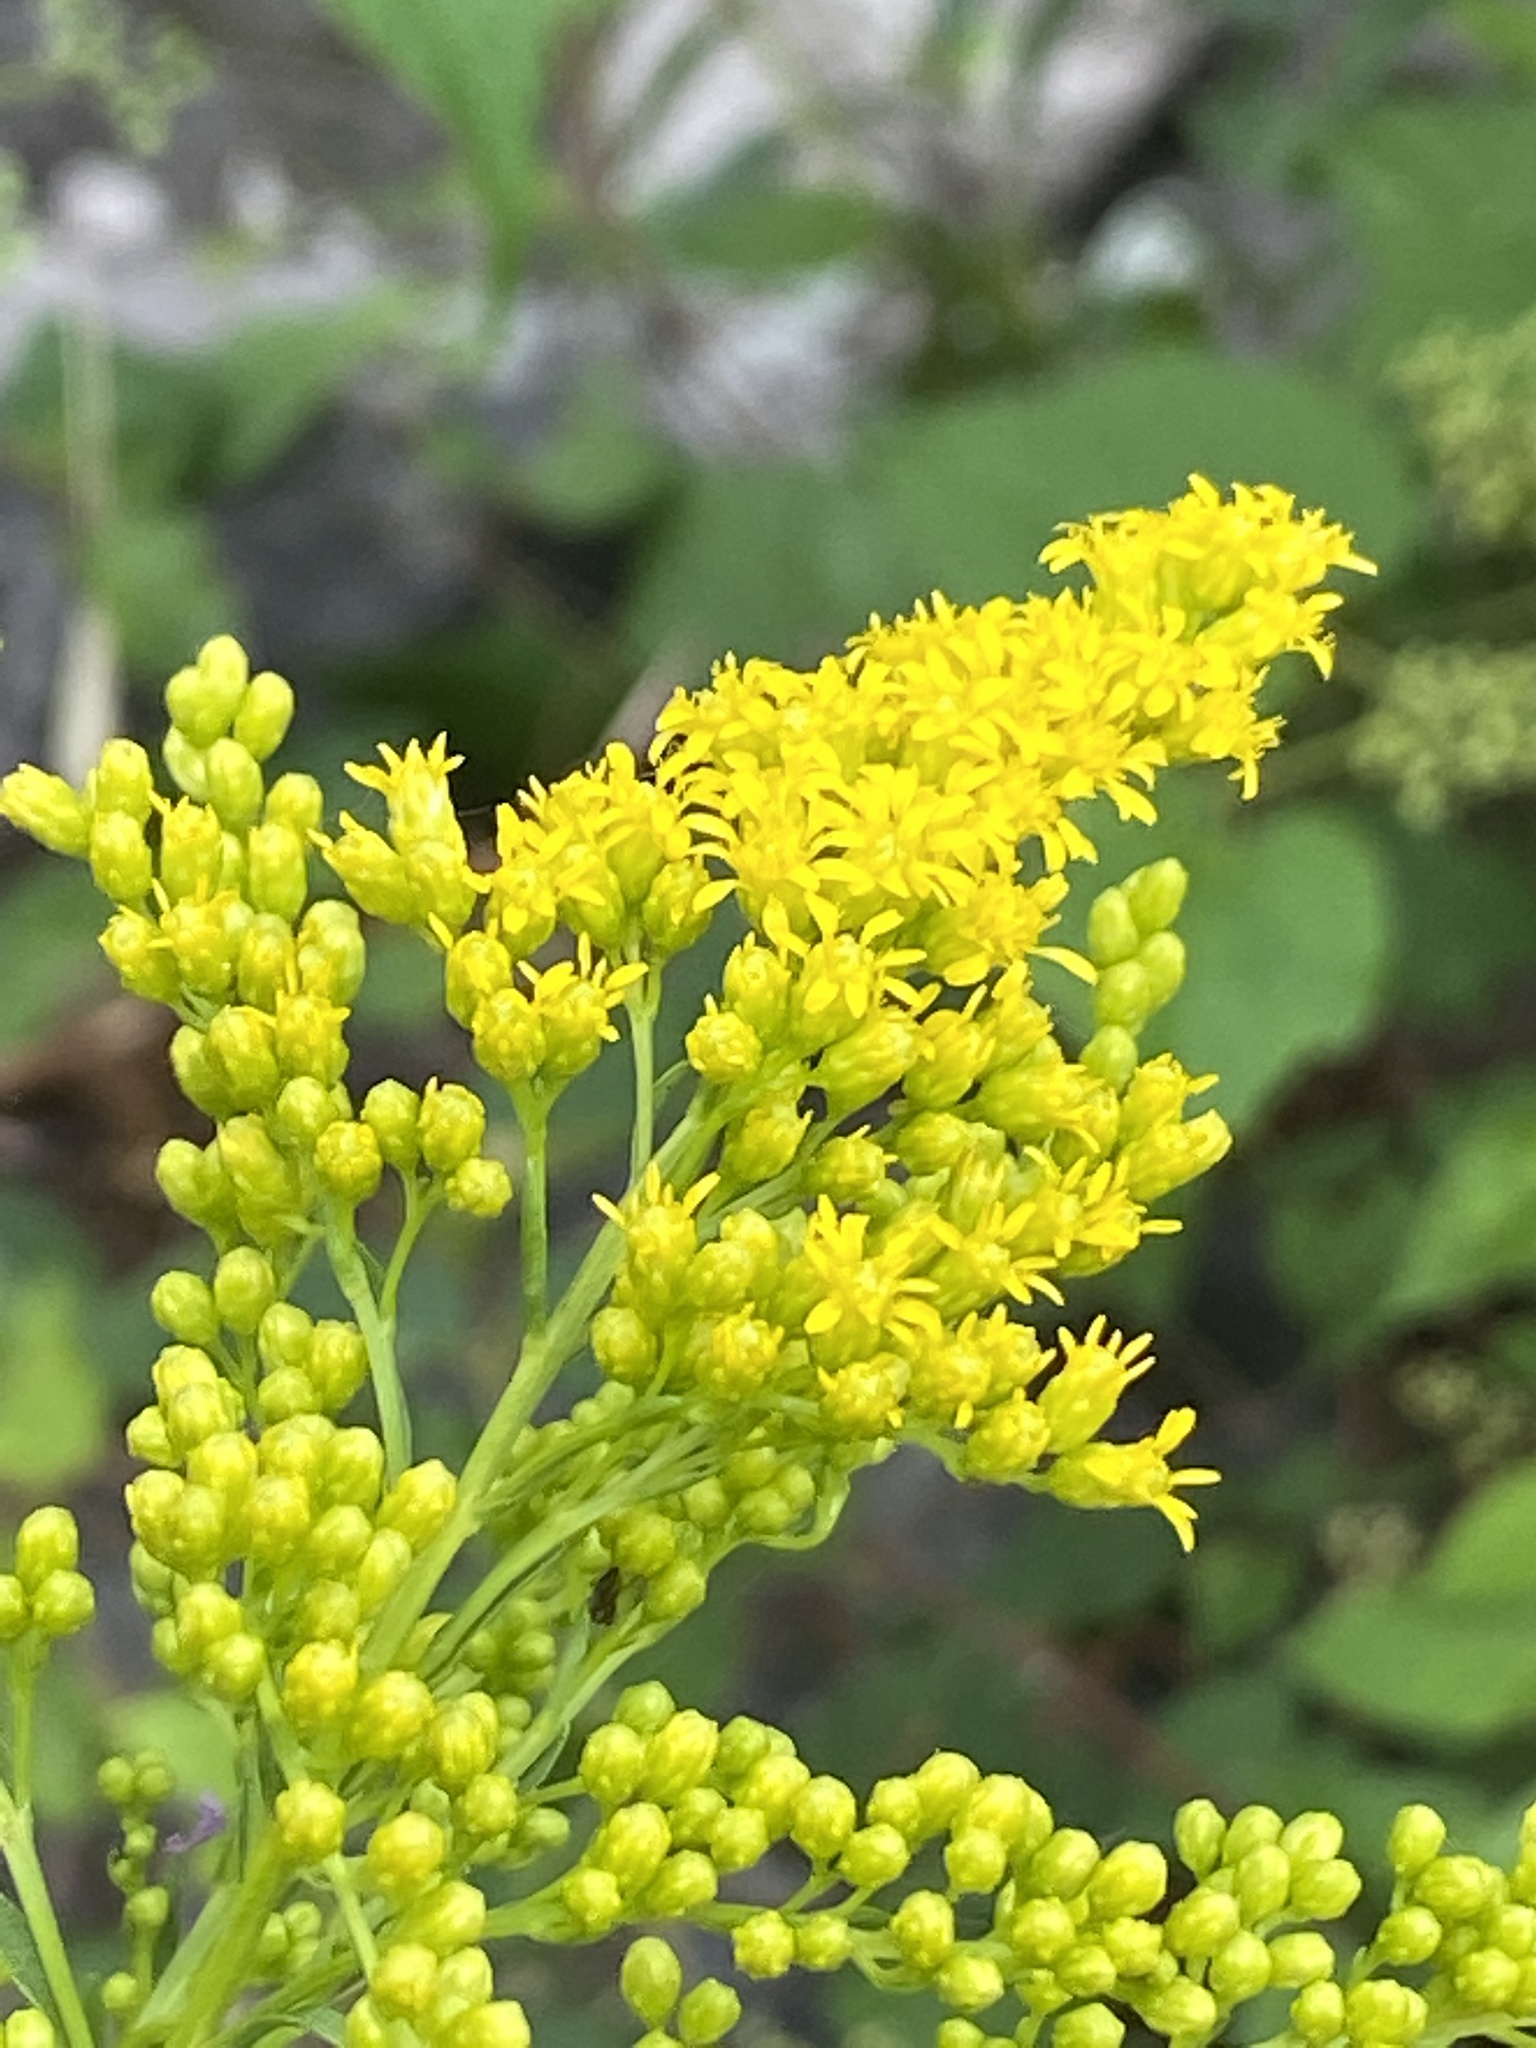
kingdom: Plantae
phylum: Tracheophyta
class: Magnoliopsida
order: Asterales
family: Asteraceae
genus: Solidago
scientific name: Solidago juncea
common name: Early goldenrod
